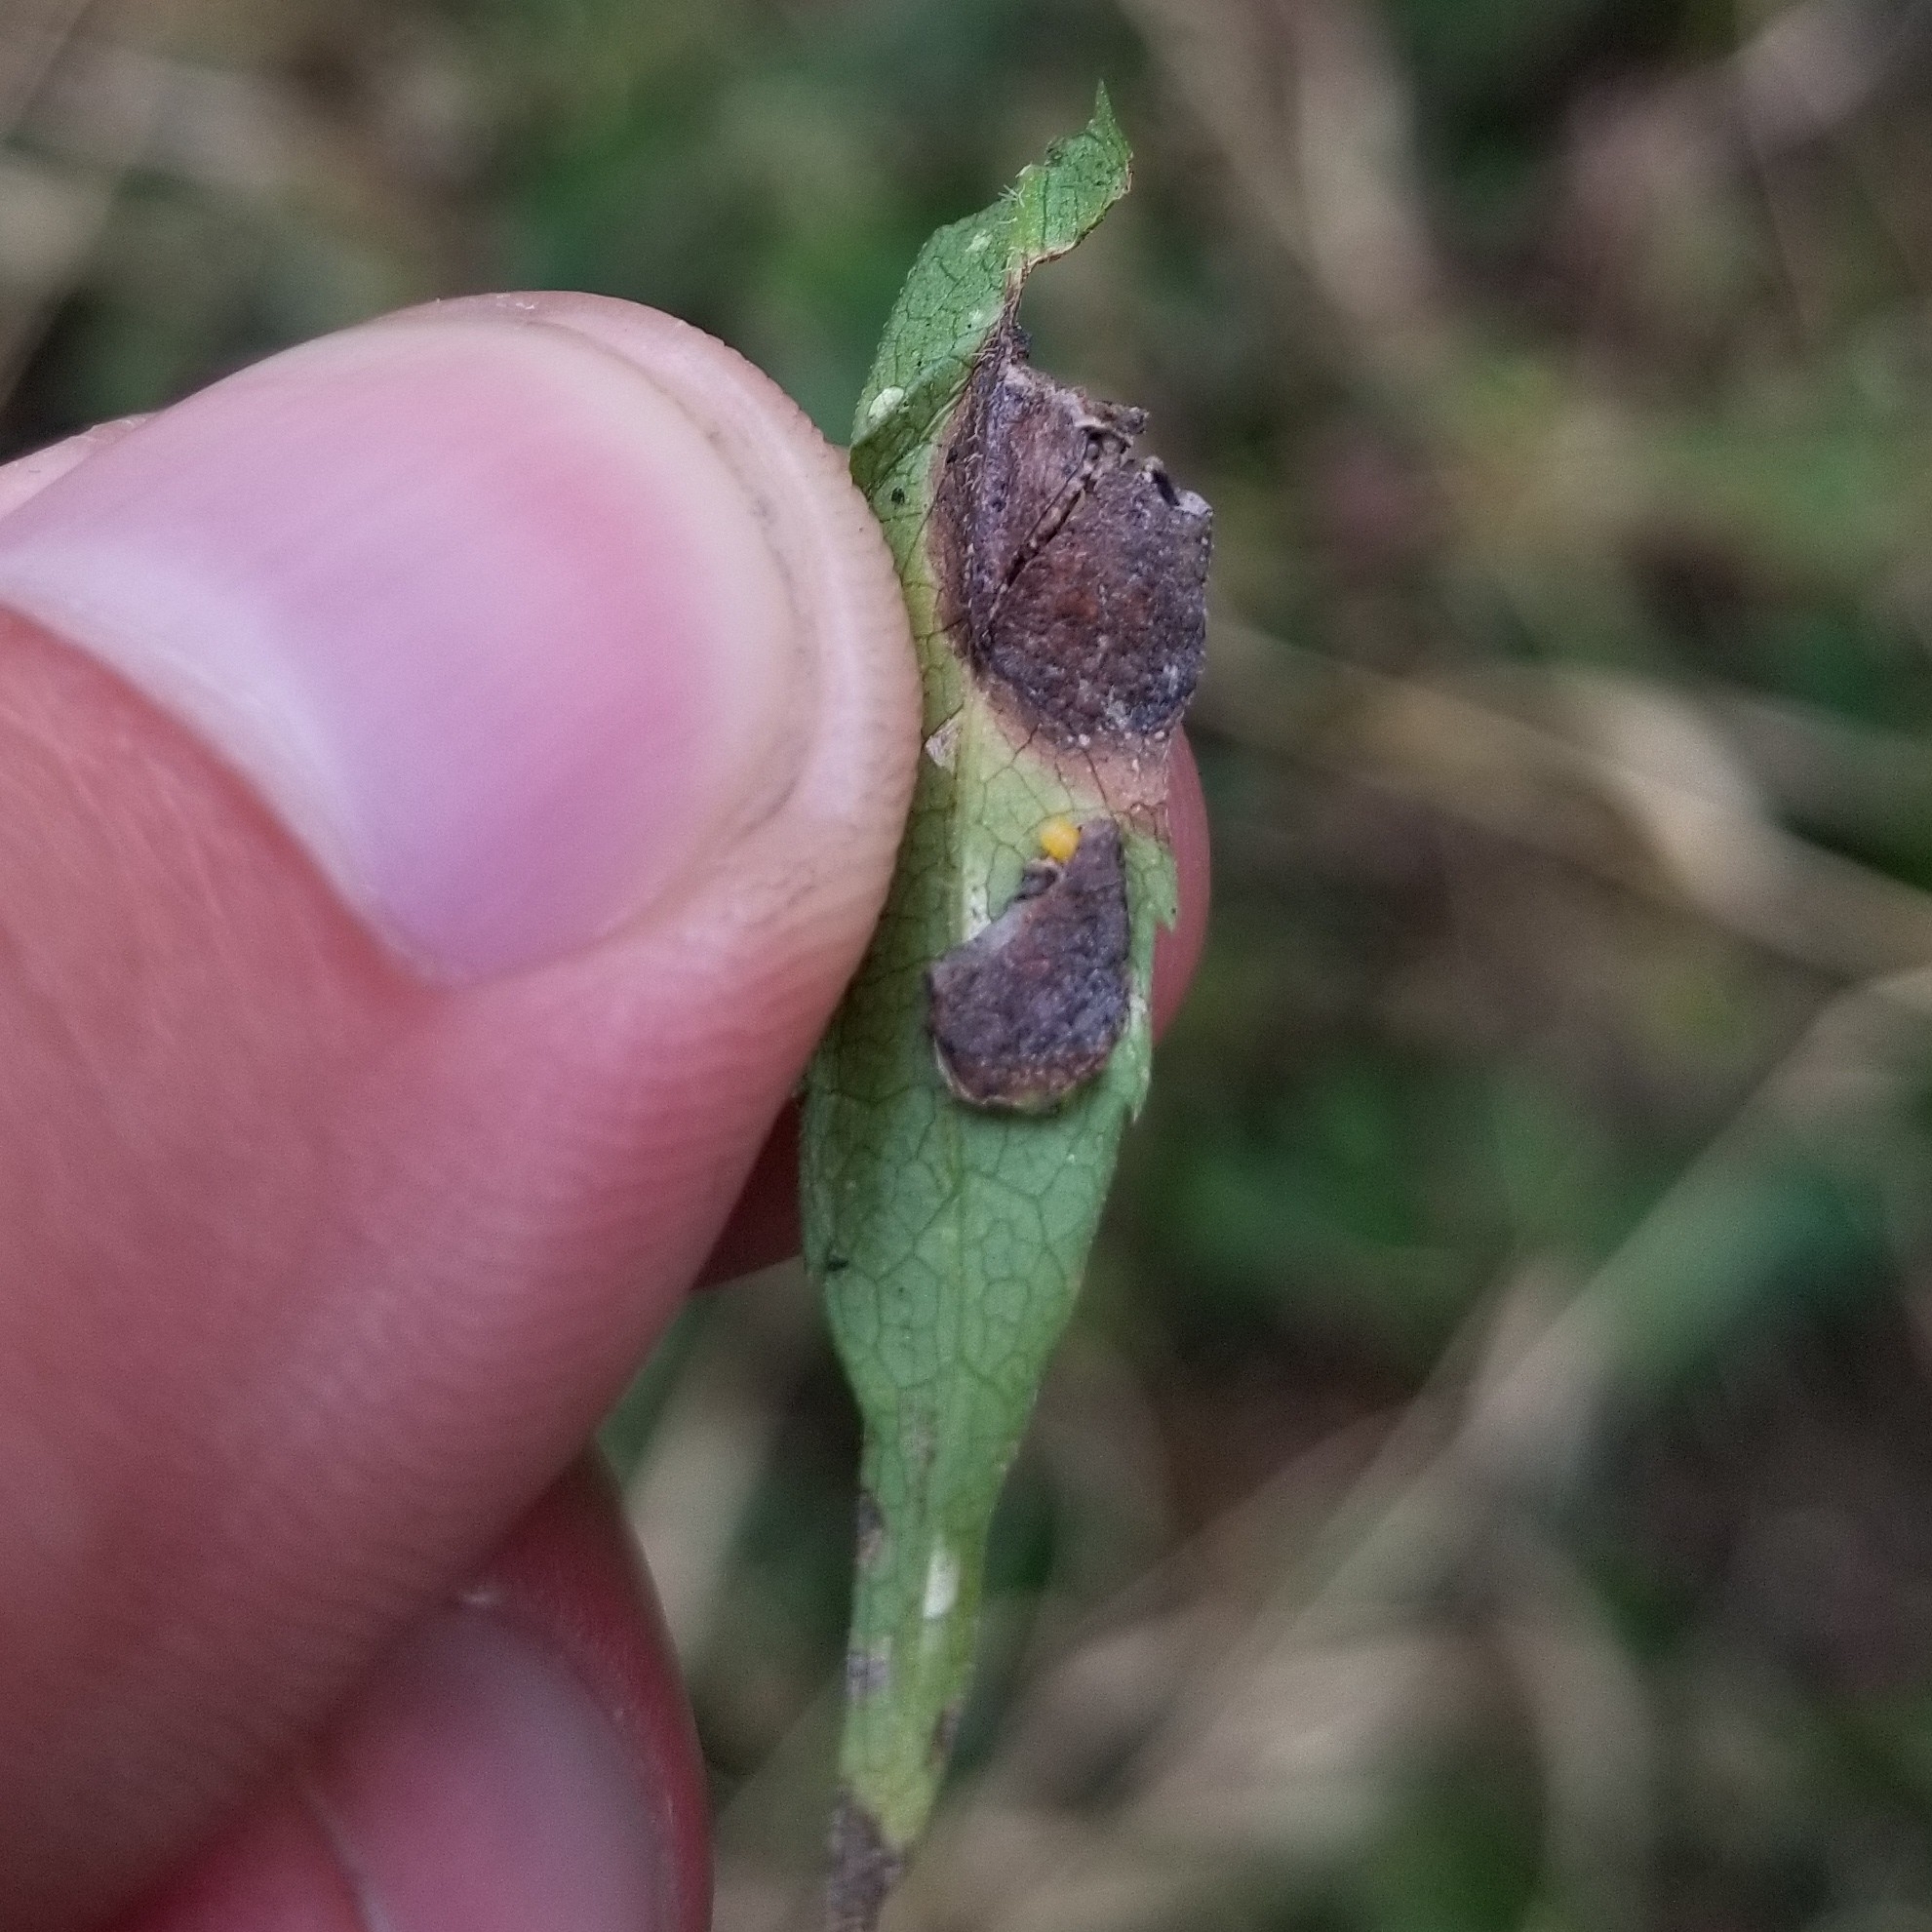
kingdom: Animalia
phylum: Arthropoda
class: Insecta
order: Diptera
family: Cecidomyiidae
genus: Asteromyia
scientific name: Asteromyia laeviana
